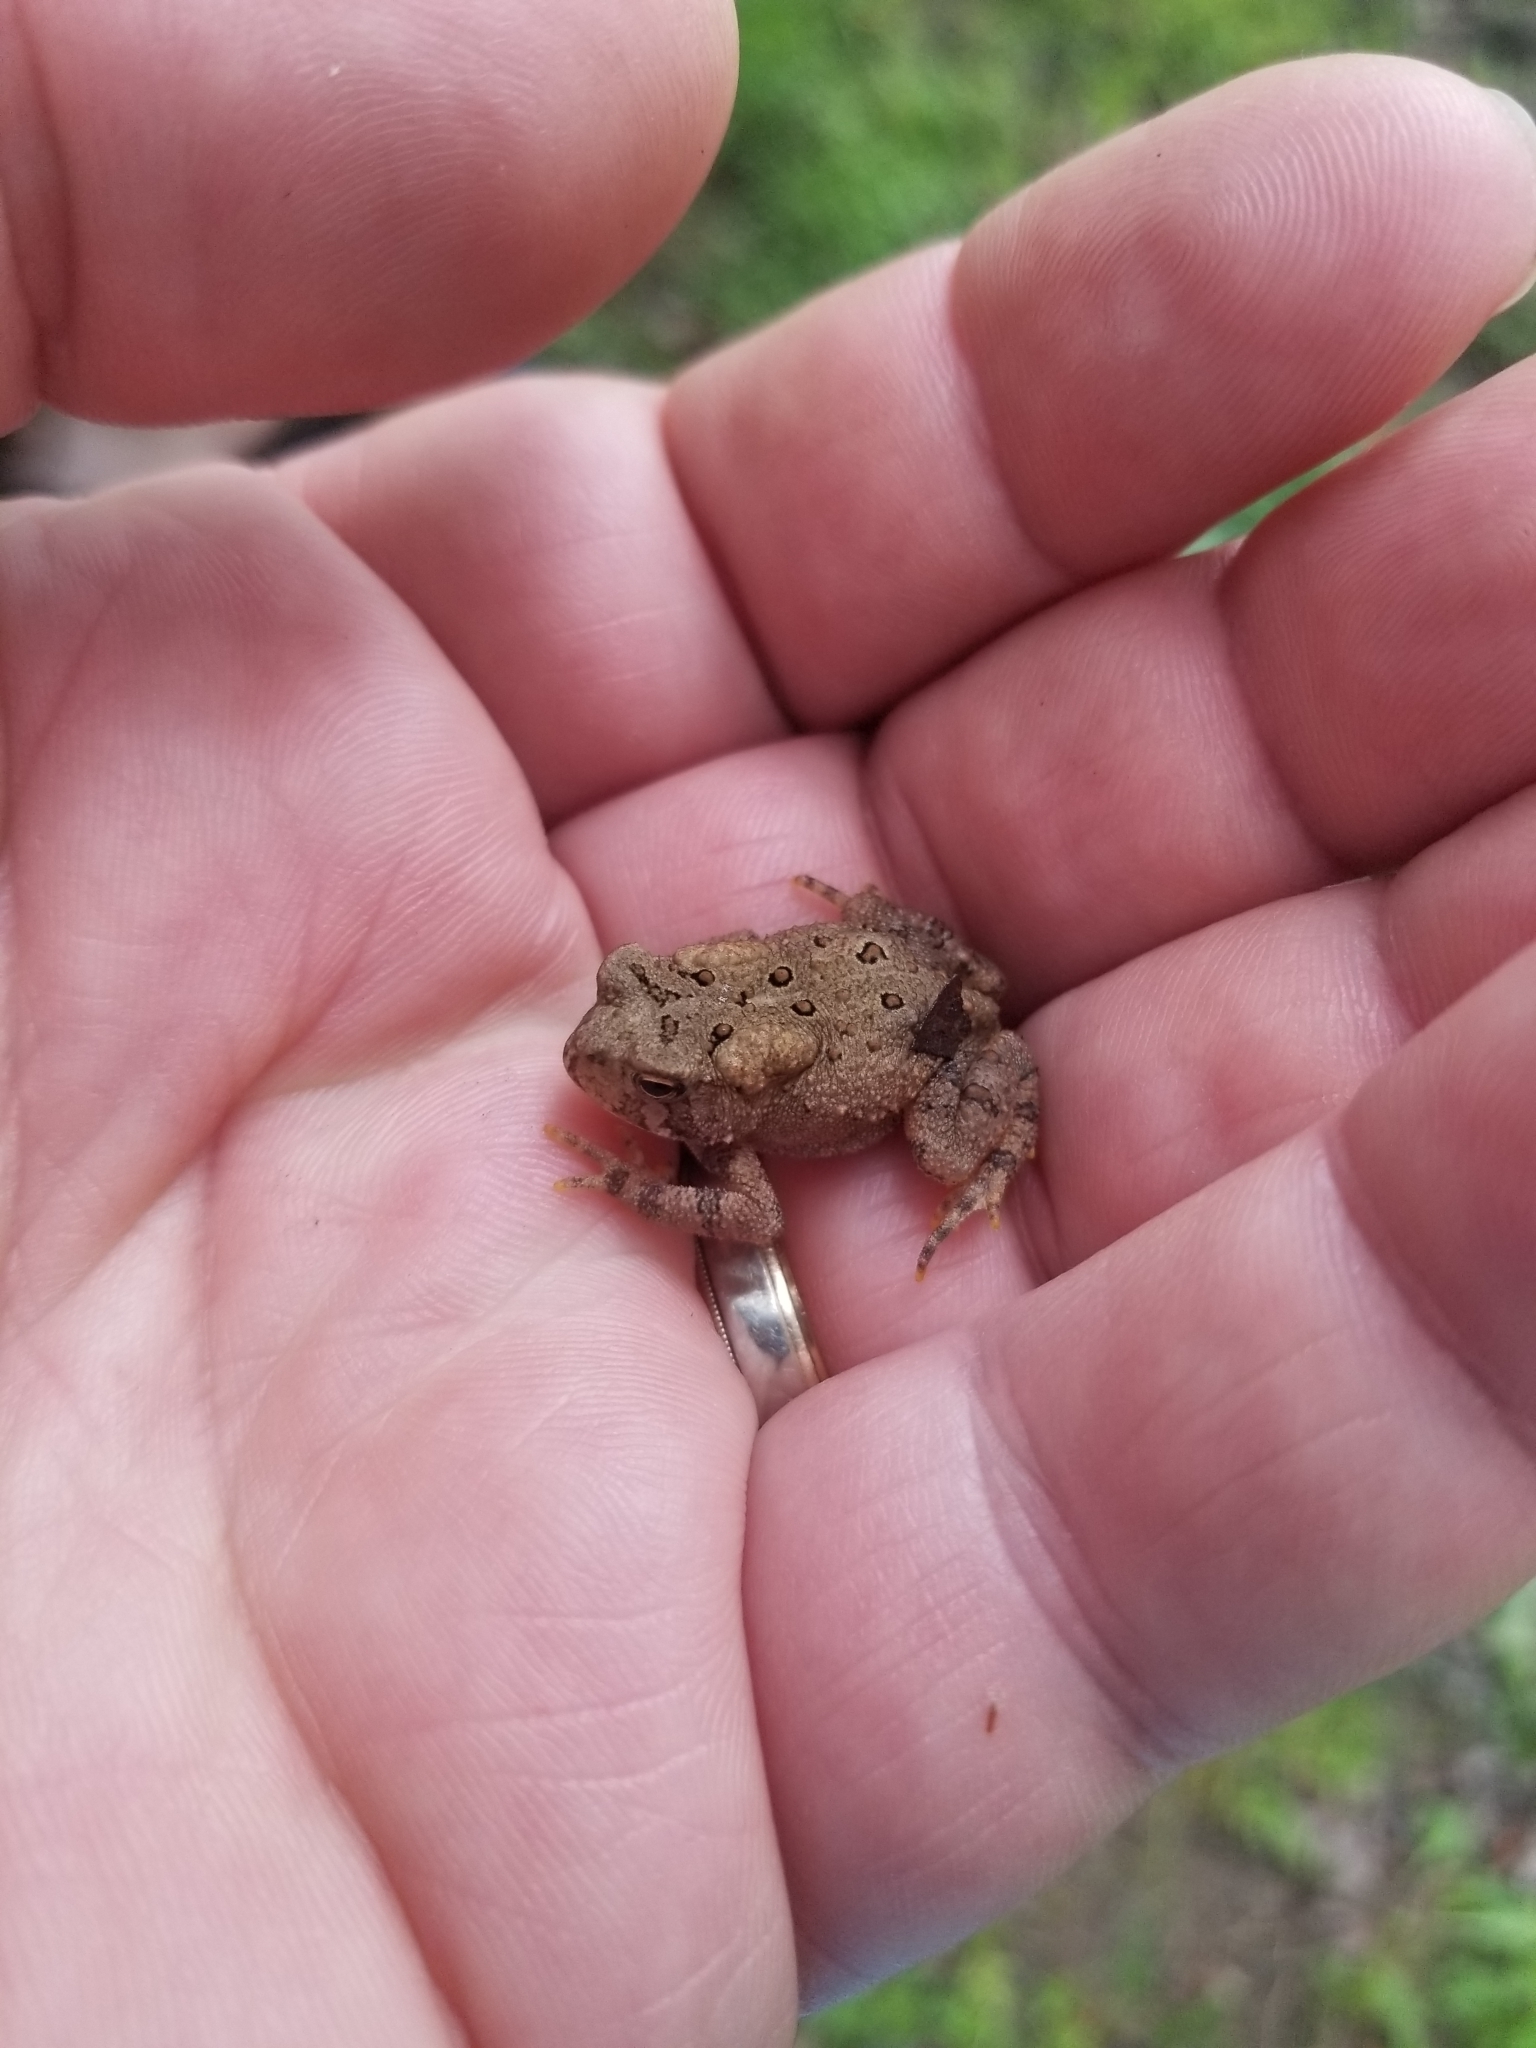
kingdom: Animalia
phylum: Chordata
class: Amphibia
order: Anura
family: Bufonidae
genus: Anaxyrus
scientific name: Anaxyrus americanus
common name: American toad
